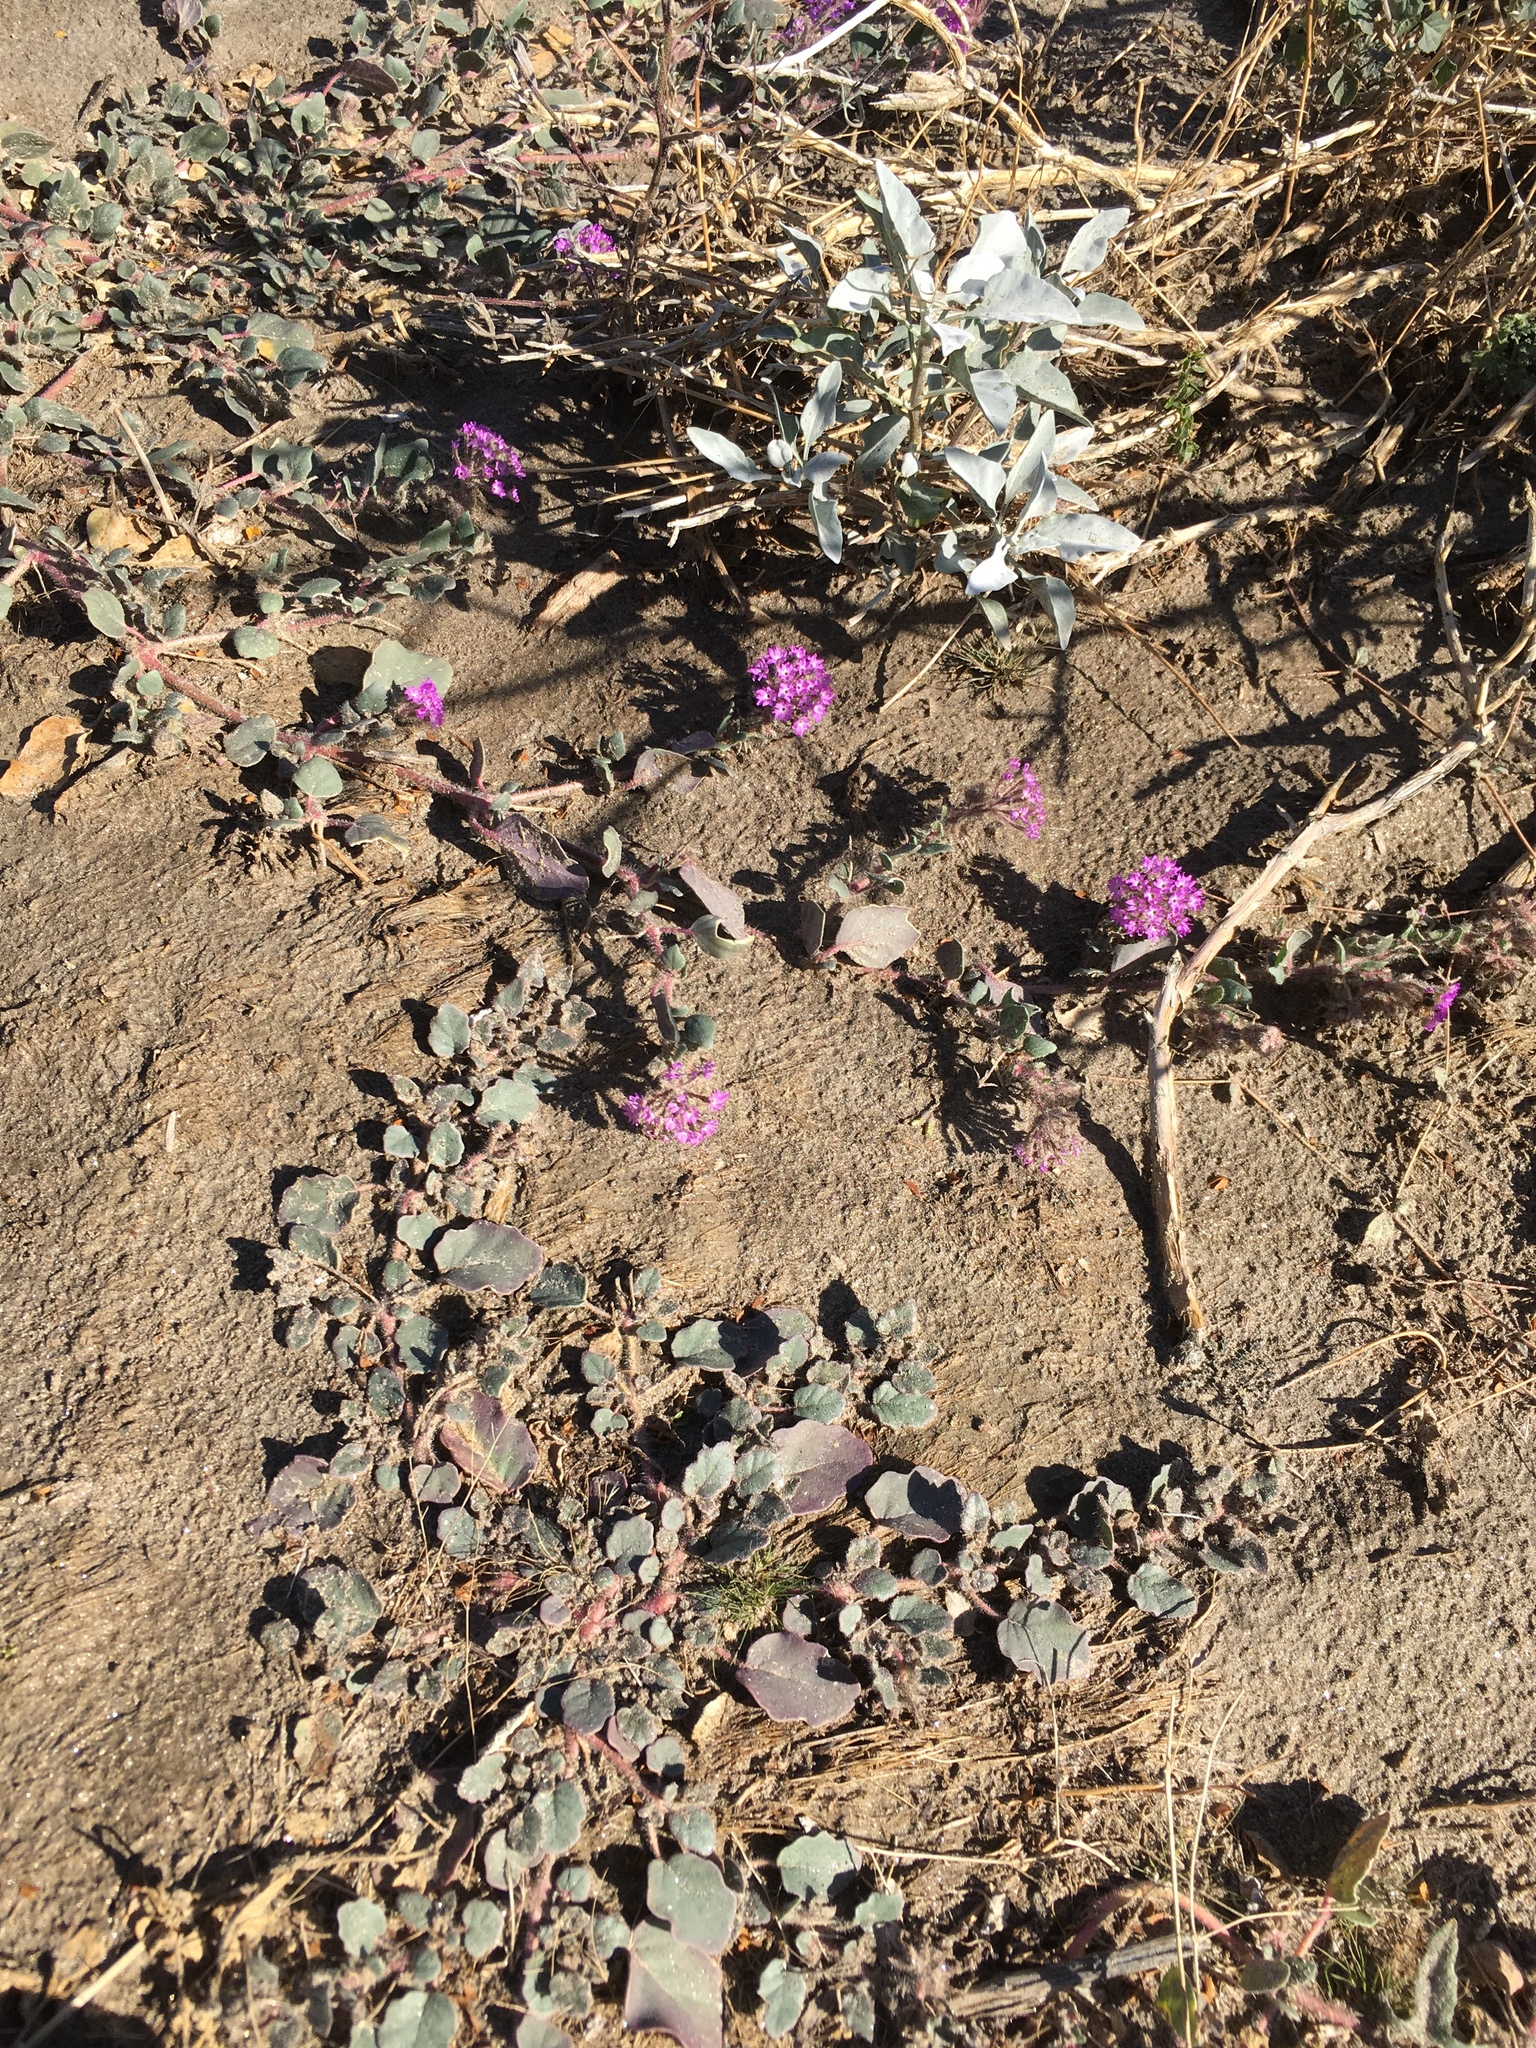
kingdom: Plantae
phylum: Tracheophyta
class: Magnoliopsida
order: Caryophyllales
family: Nyctaginaceae
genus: Abronia
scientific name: Abronia villosa
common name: Desert sand-verbena
